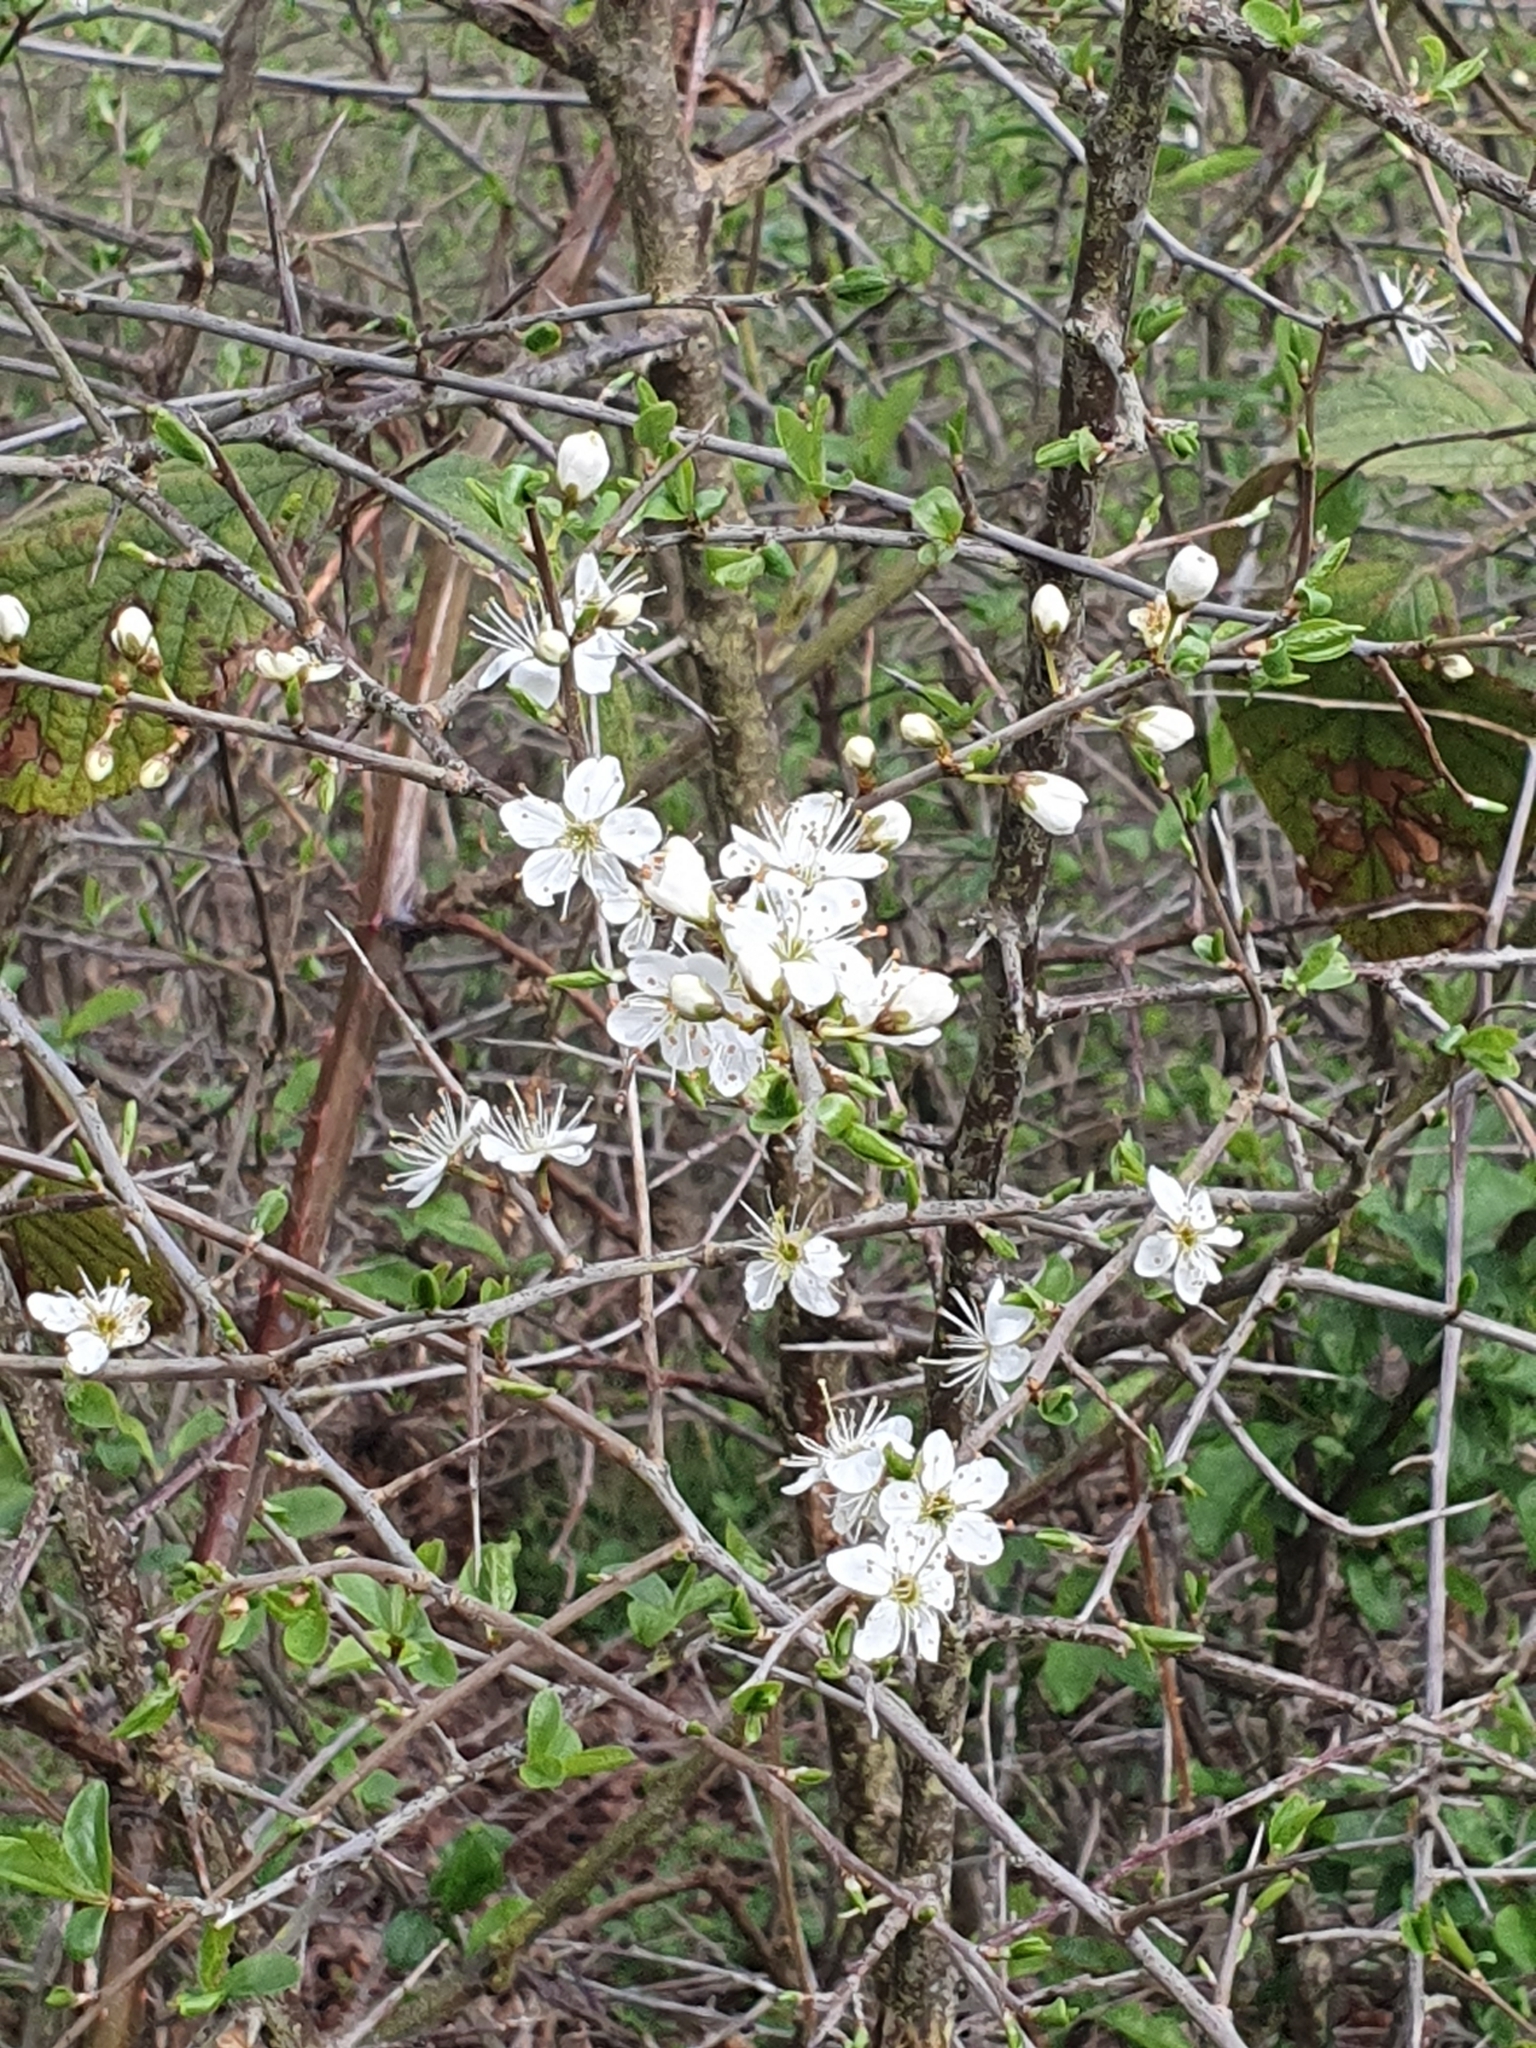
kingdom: Plantae
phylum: Tracheophyta
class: Magnoliopsida
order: Rosales
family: Rosaceae
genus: Prunus
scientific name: Prunus spinosa
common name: Blackthorn
